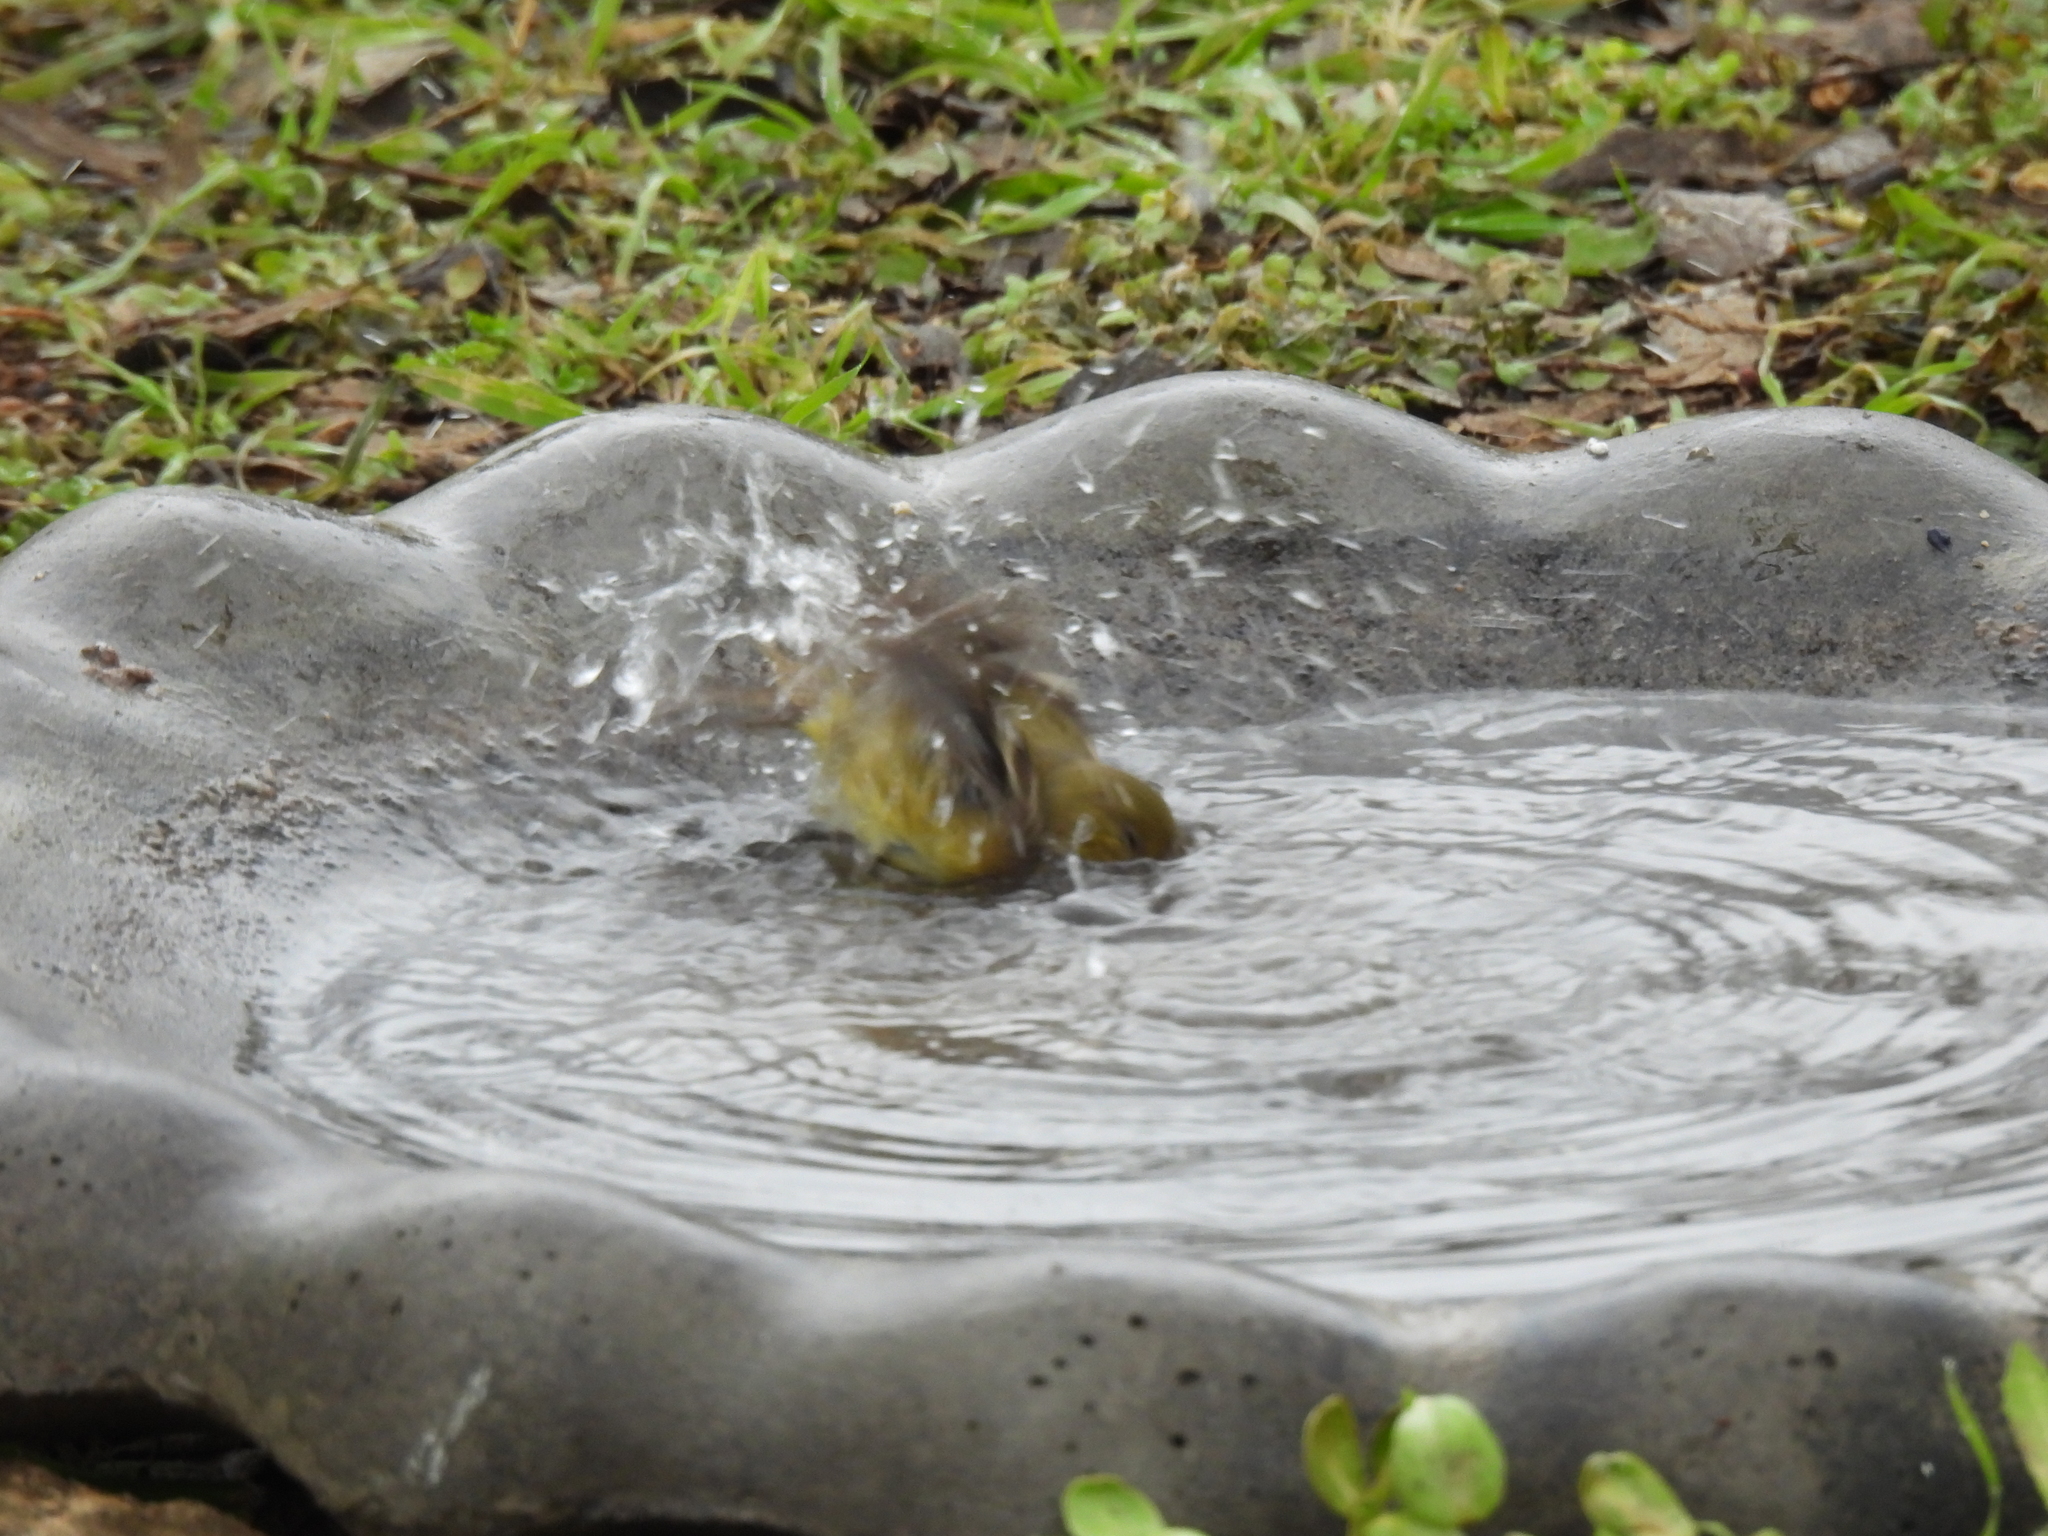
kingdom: Animalia
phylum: Chordata
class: Aves
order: Passeriformes
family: Fringillidae
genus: Spinus
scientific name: Spinus psaltria
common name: Lesser goldfinch
